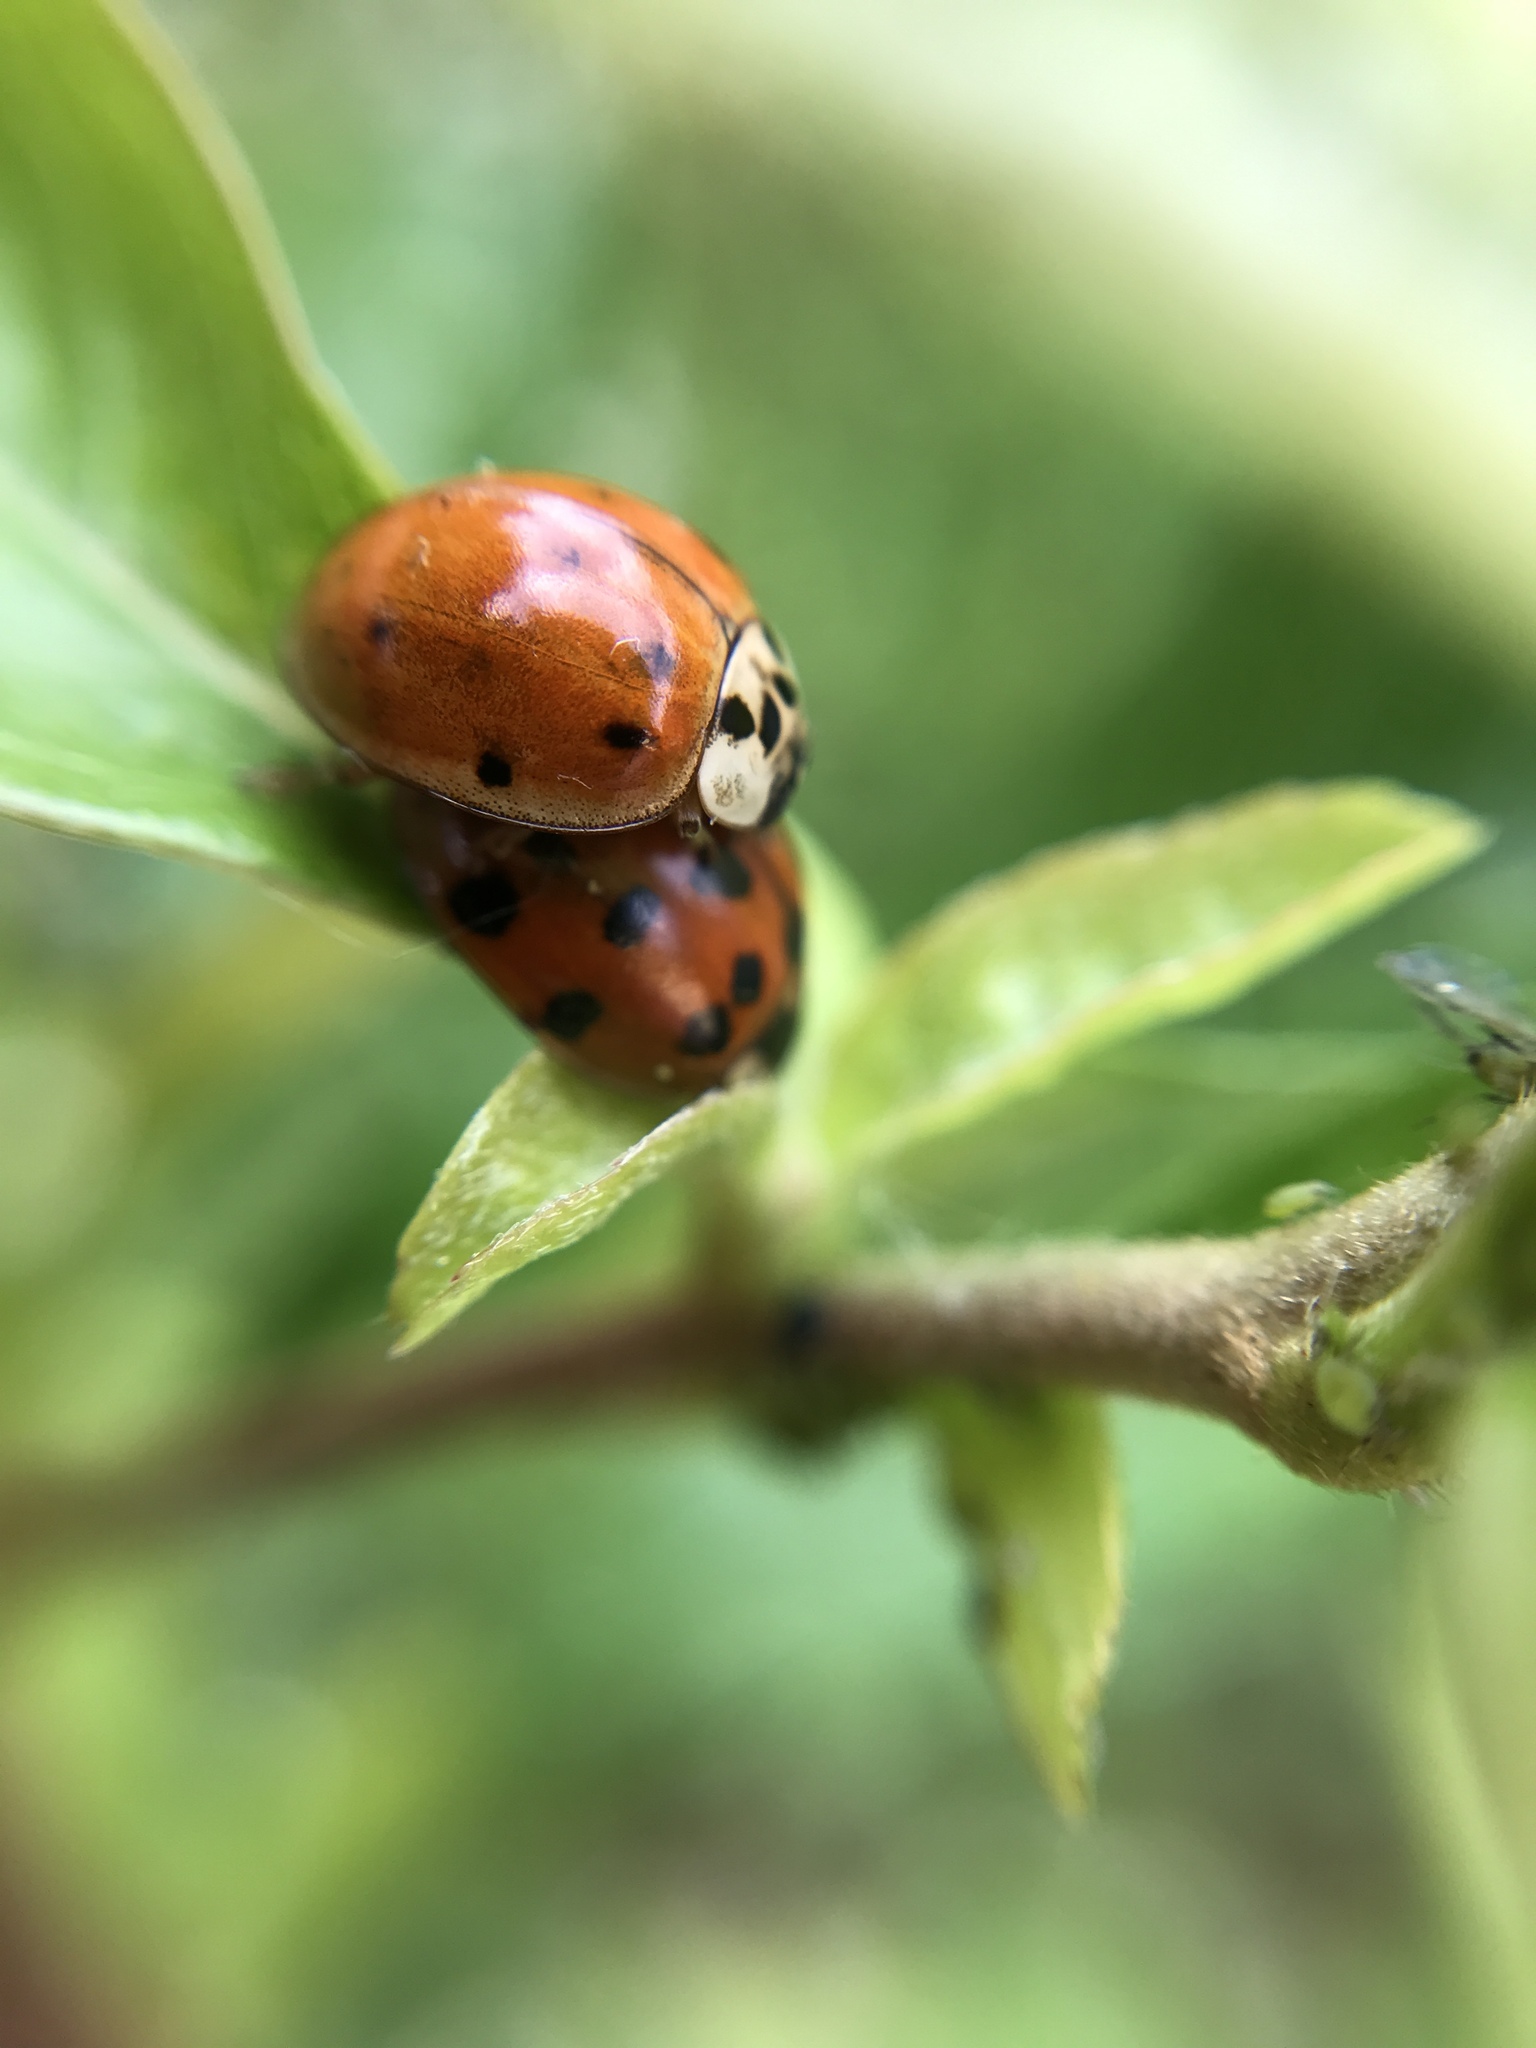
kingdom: Animalia
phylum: Arthropoda
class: Insecta
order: Coleoptera
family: Coccinellidae
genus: Harmonia
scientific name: Harmonia axyridis
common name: Harlequin ladybird
